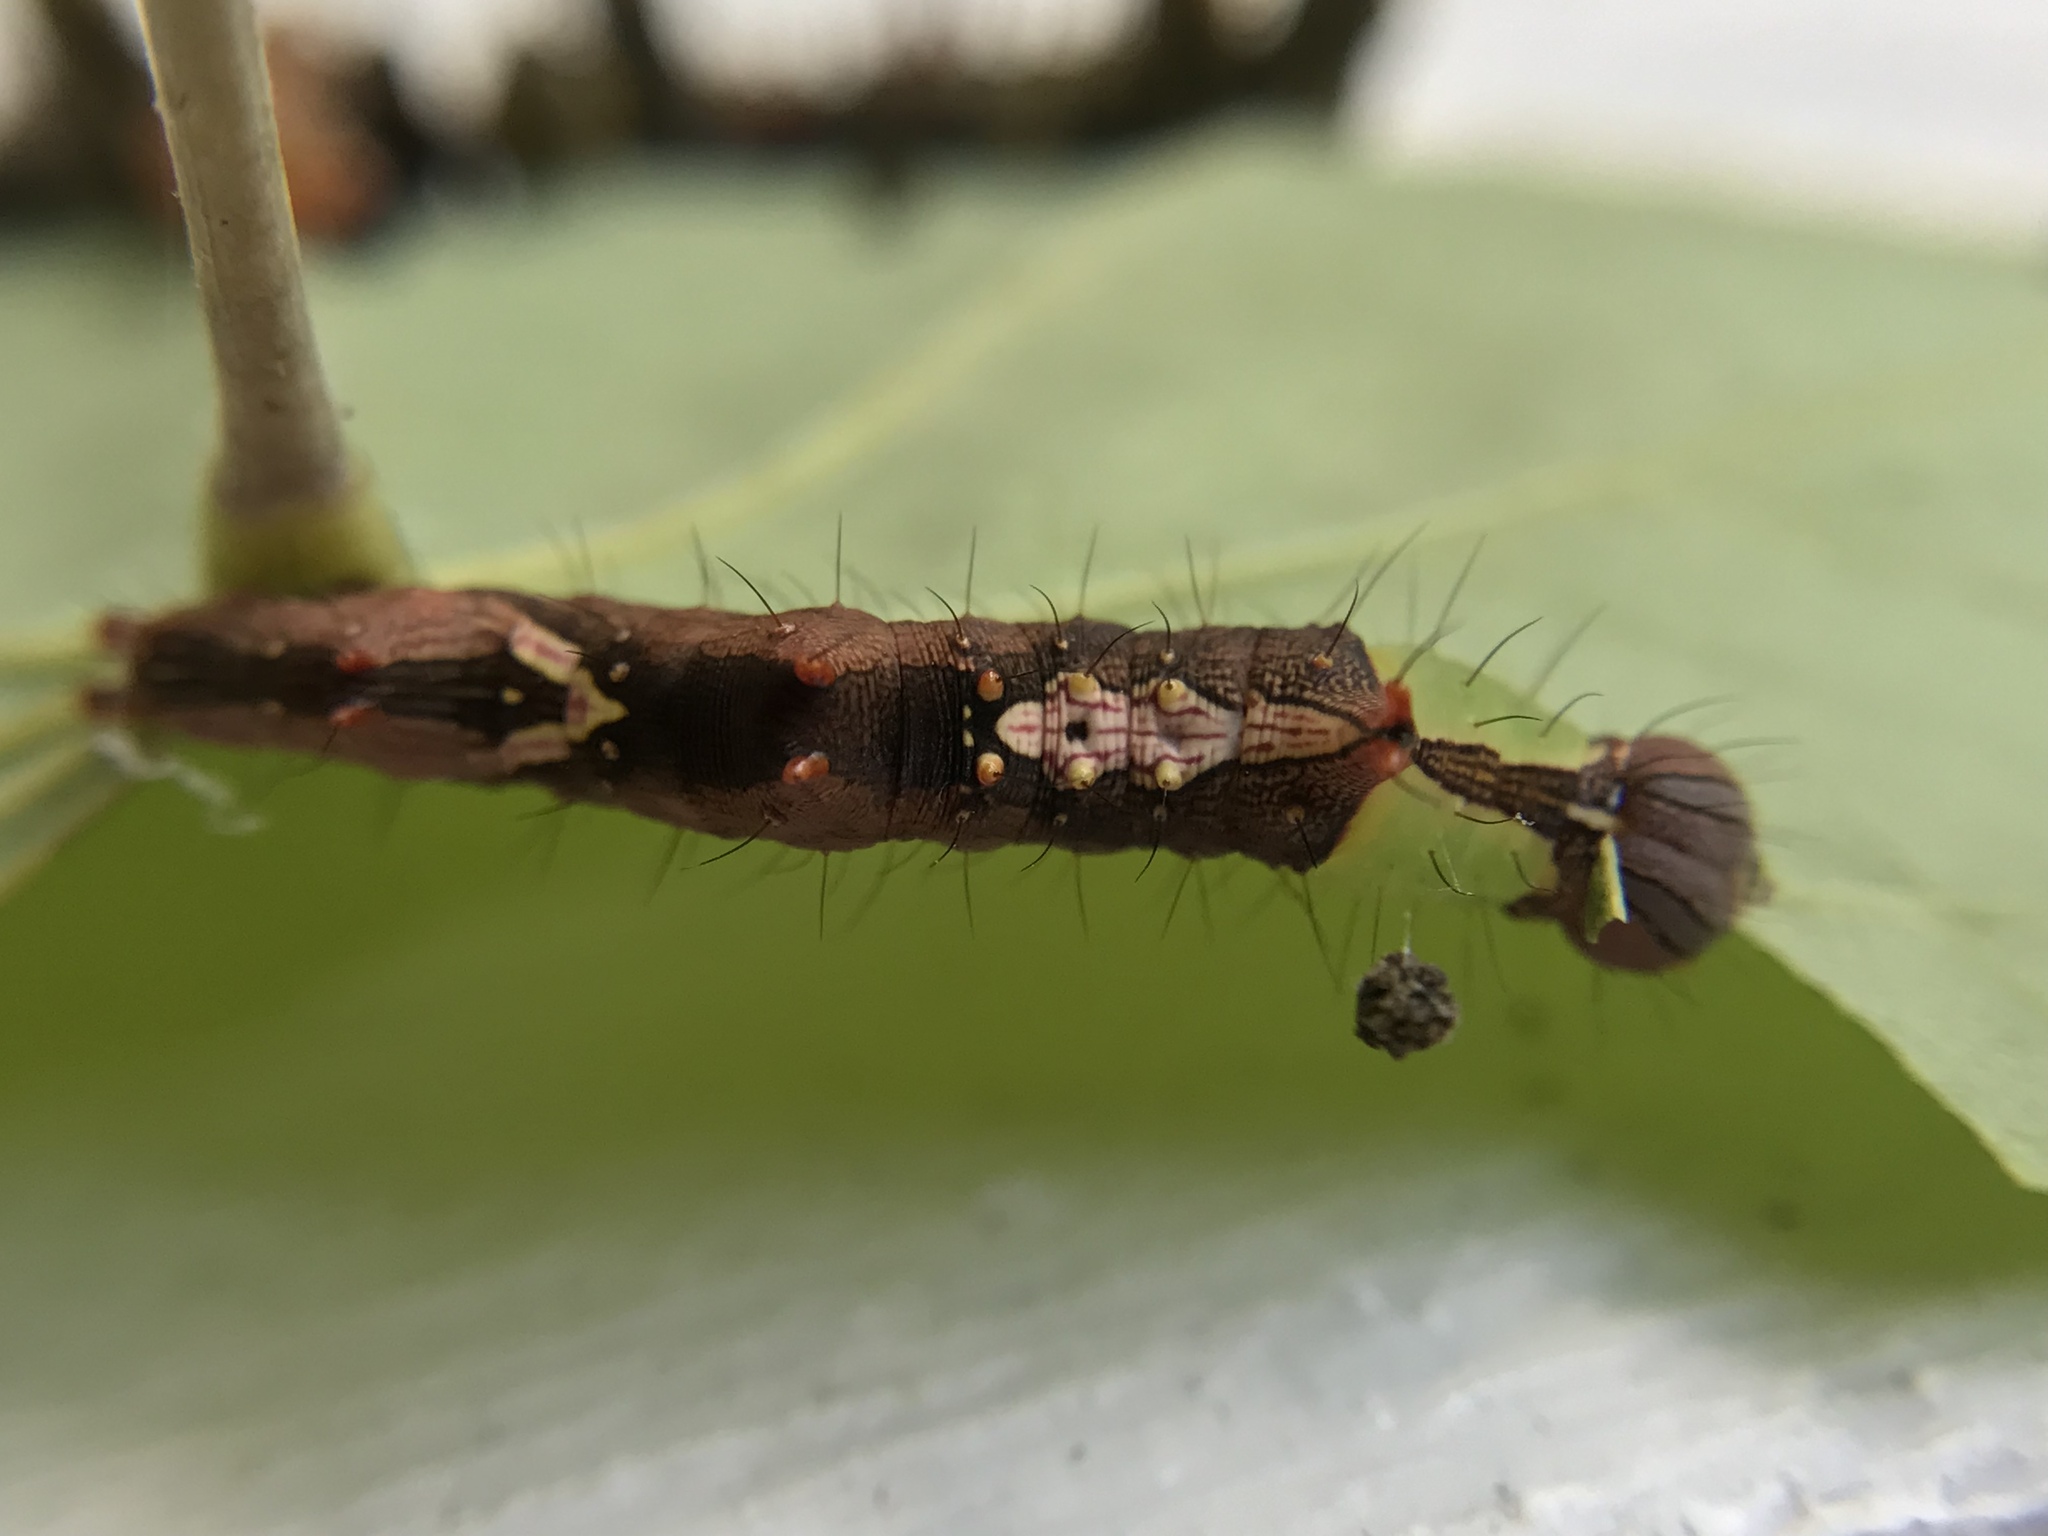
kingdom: Animalia
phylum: Arthropoda
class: Insecta
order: Lepidoptera
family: Notodontidae
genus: Schizura
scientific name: Schizura ipomaeae
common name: Morning-glory prominent
